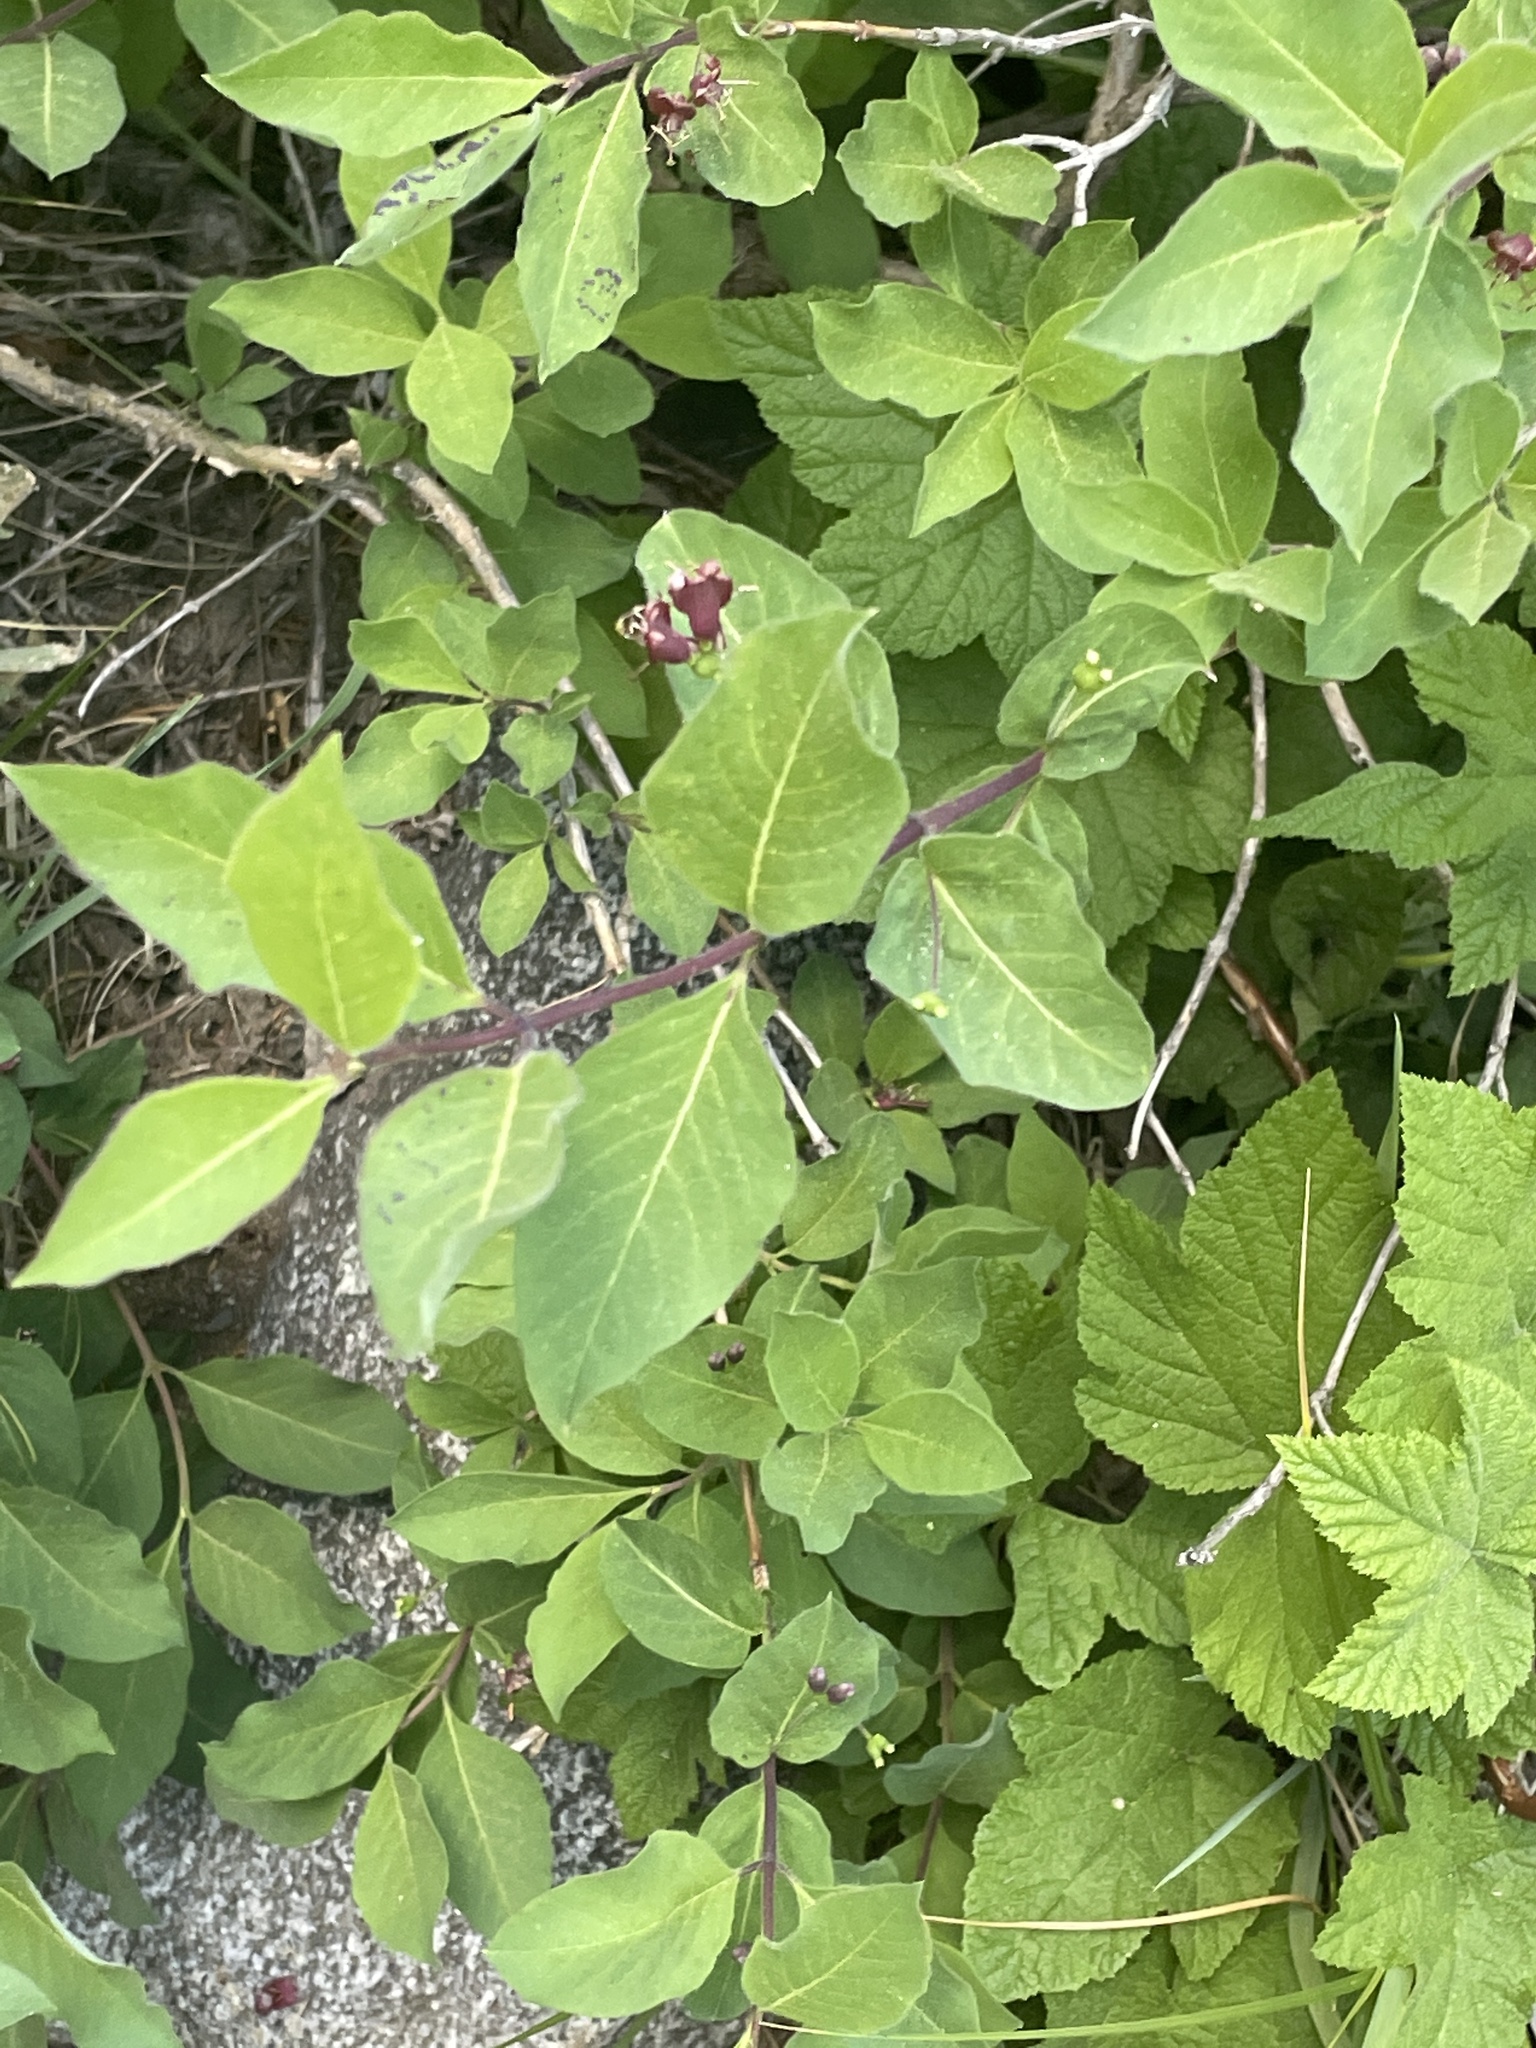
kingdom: Plantae
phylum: Tracheophyta
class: Magnoliopsida
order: Dipsacales
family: Caprifoliaceae
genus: Lonicera
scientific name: Lonicera conjugialis
